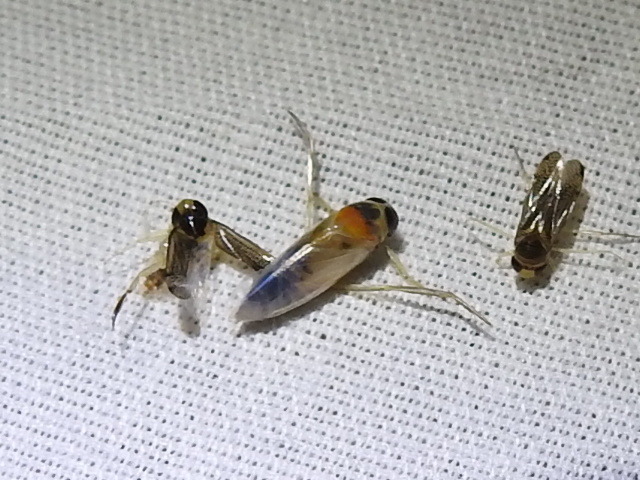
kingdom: Animalia
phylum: Arthropoda
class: Insecta
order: Hemiptera
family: Notonectidae
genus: Buenoa
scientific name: Buenoa
